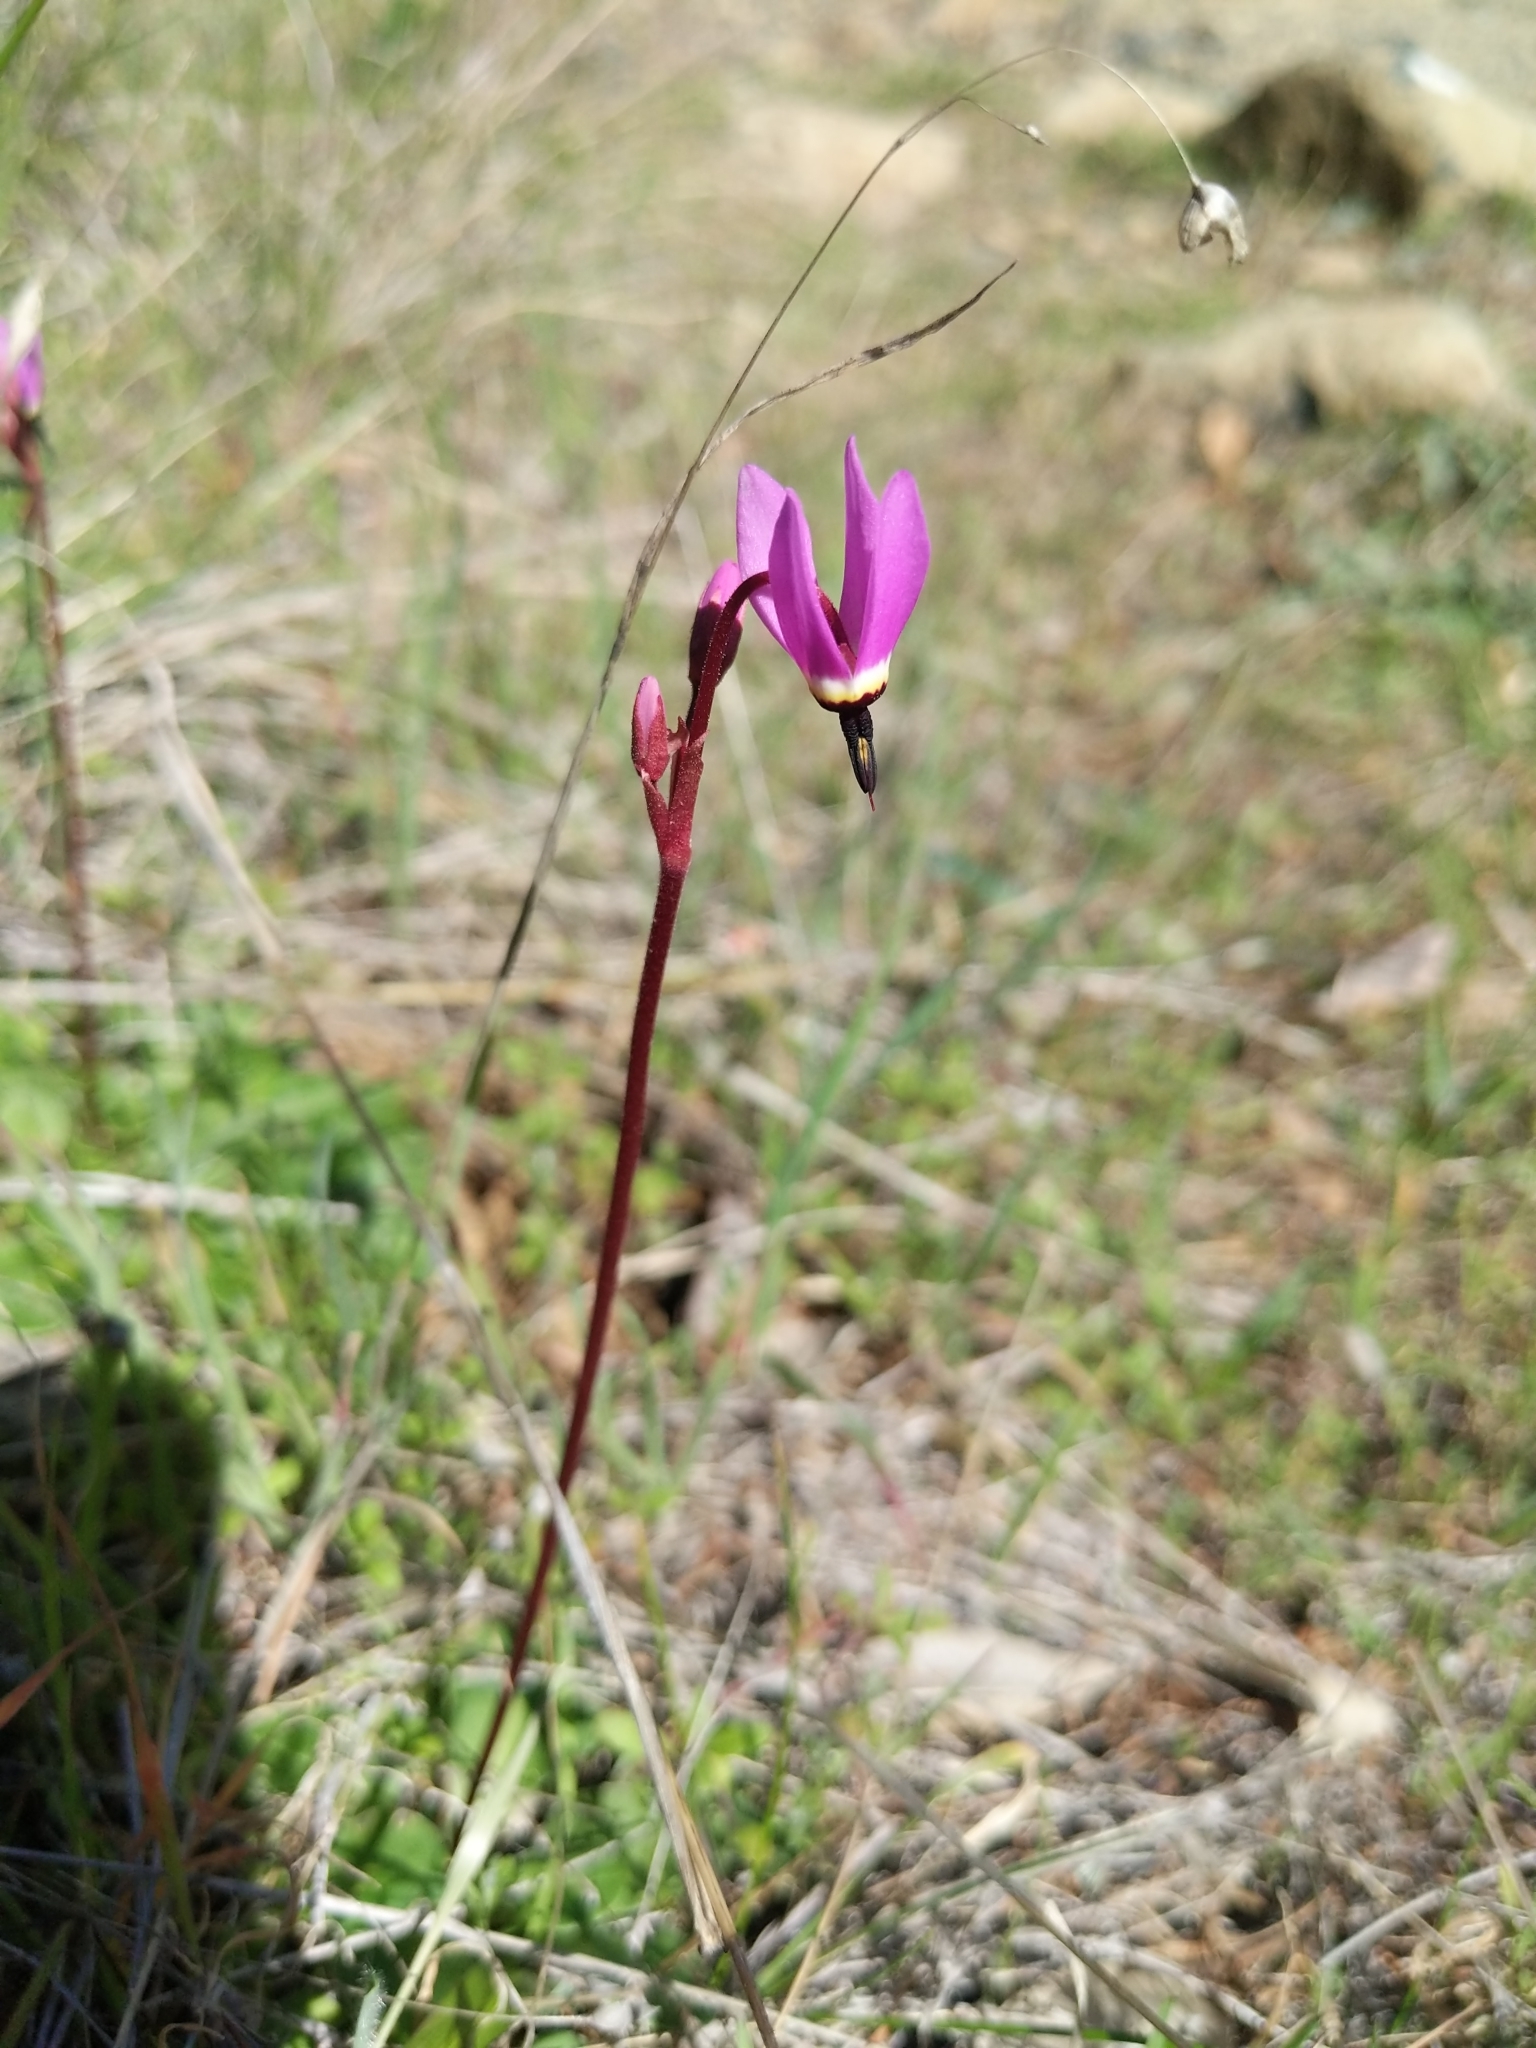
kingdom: Plantae
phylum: Tracheophyta
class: Magnoliopsida
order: Ericales
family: Primulaceae
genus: Dodecatheon
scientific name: Dodecatheon hendersonii
